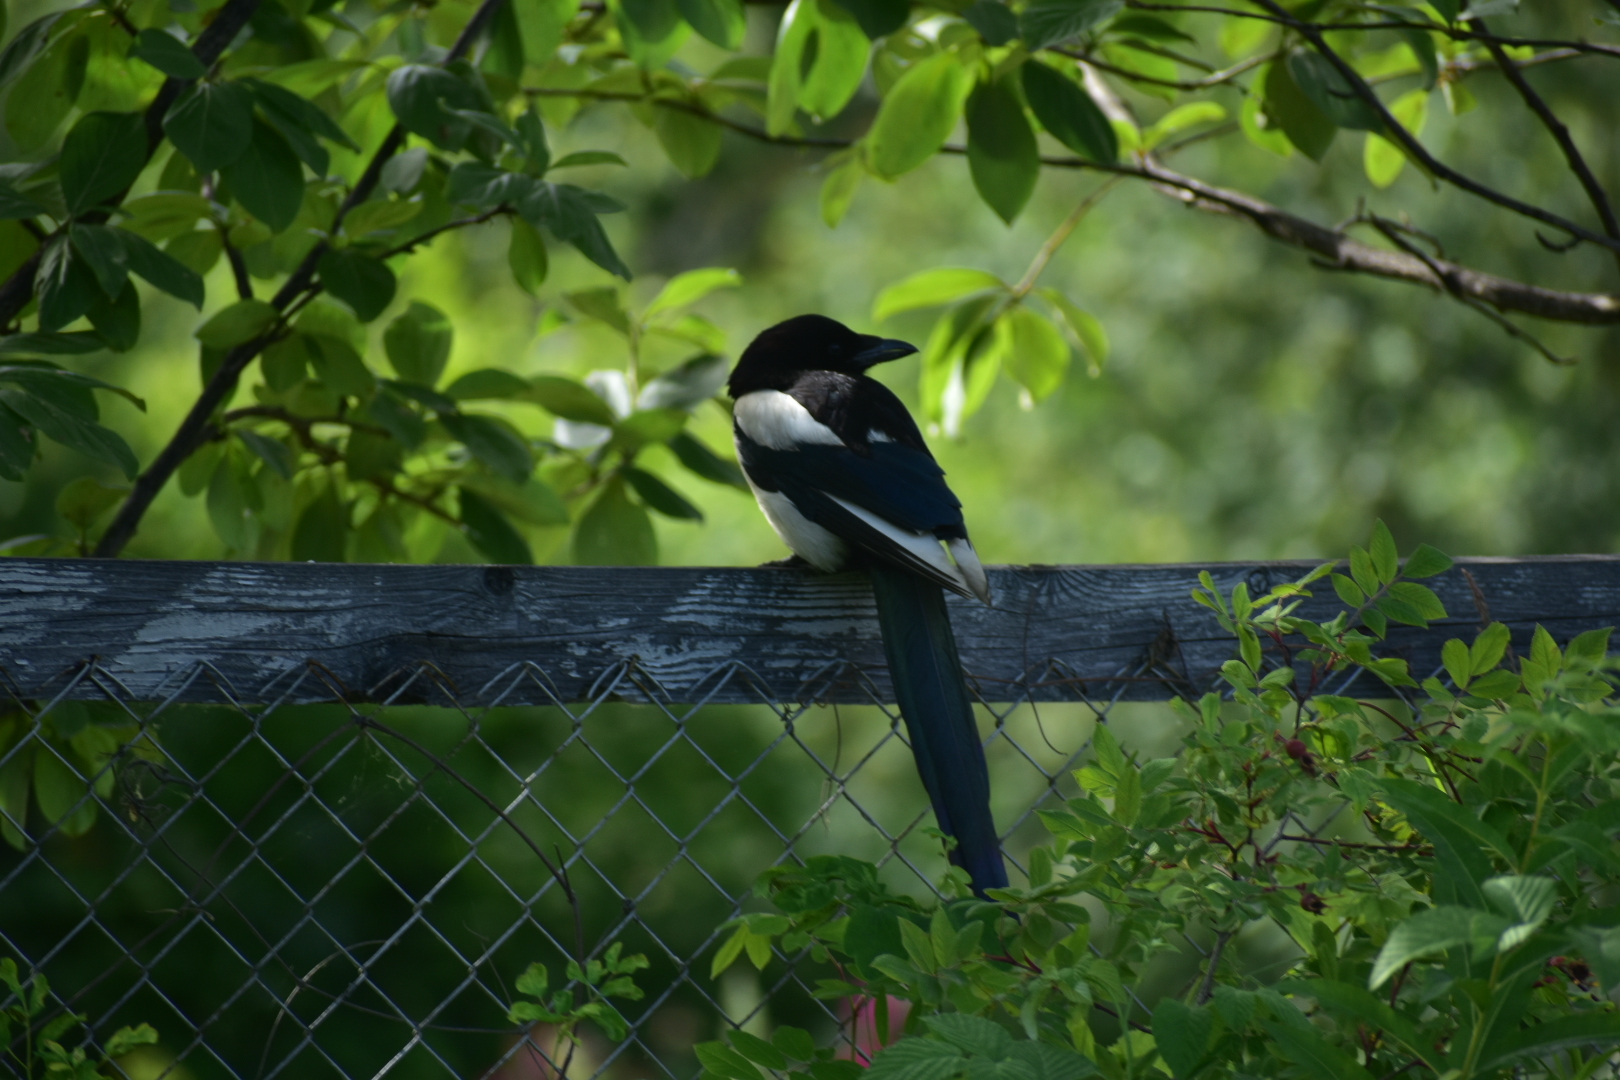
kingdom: Animalia
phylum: Chordata
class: Aves
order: Passeriformes
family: Corvidae
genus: Pica
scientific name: Pica pica
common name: Eurasian magpie
